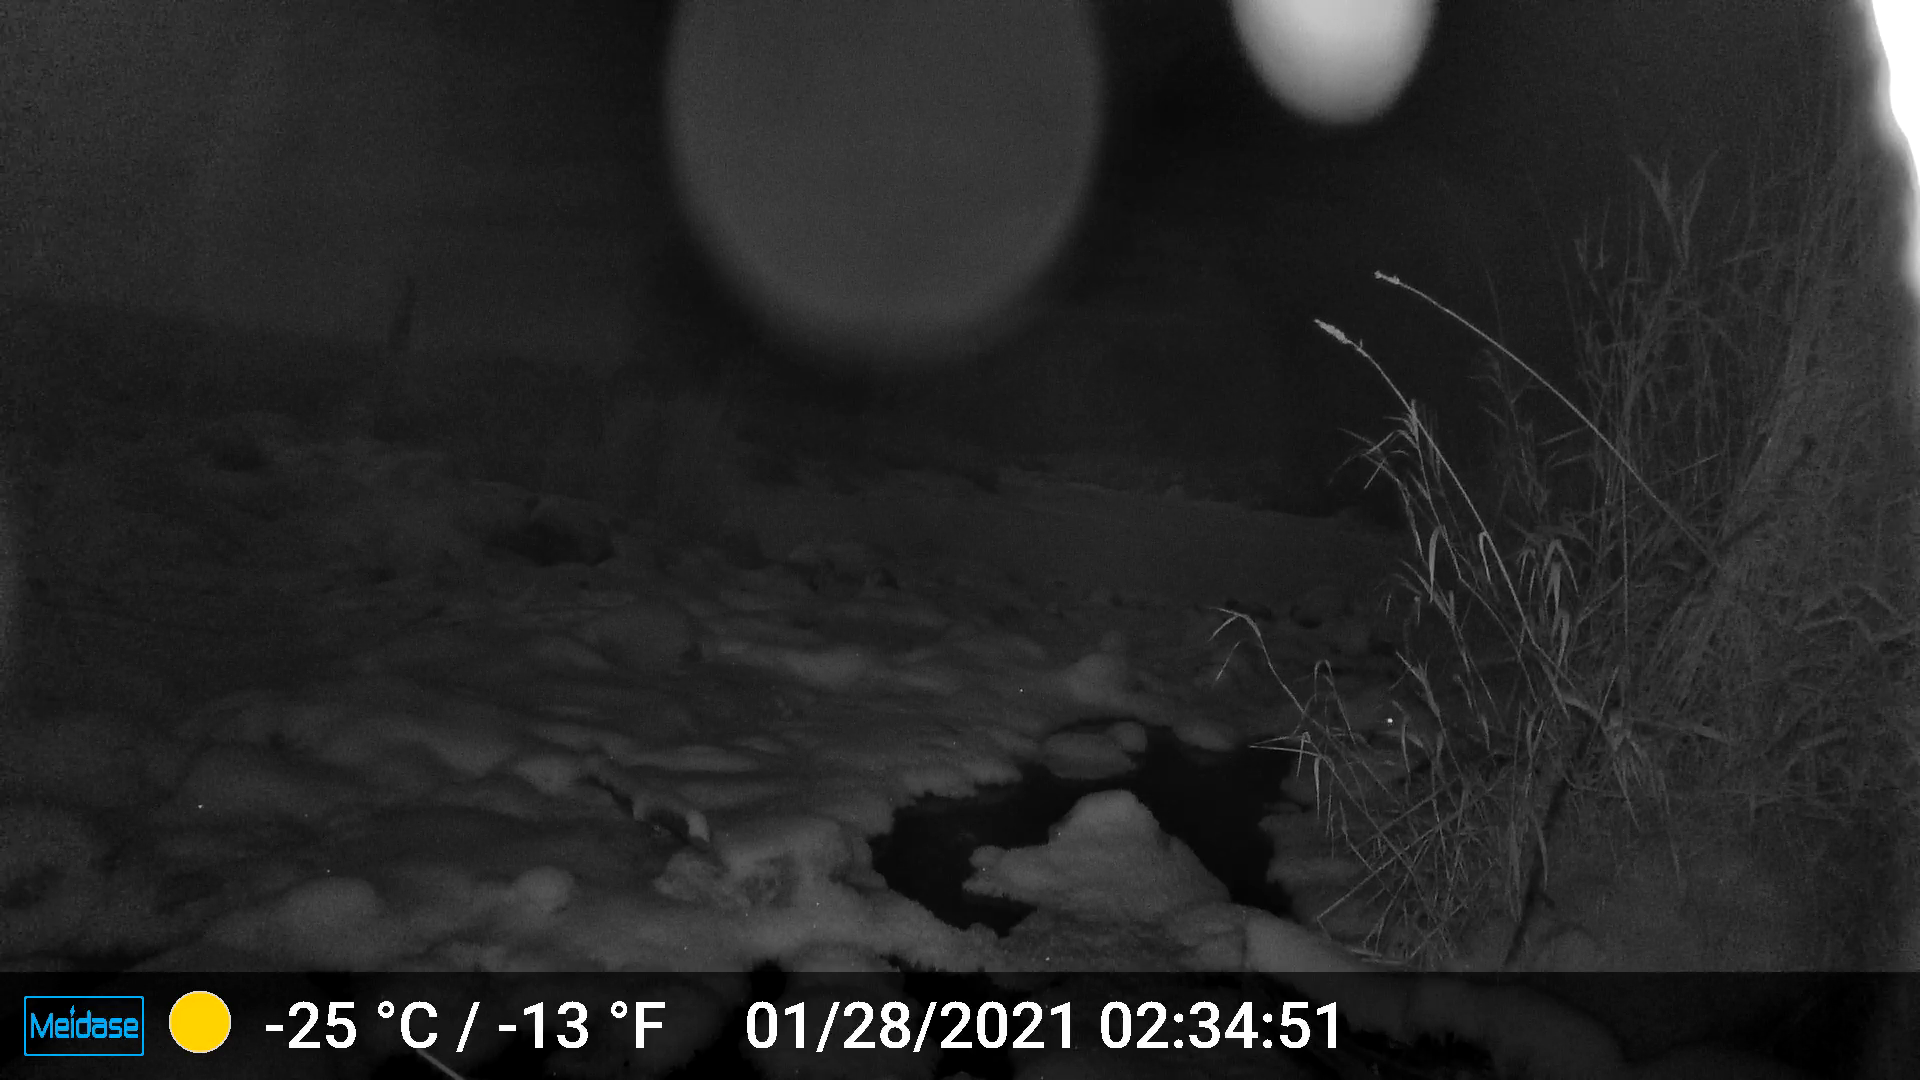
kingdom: Animalia
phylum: Chordata
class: Mammalia
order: Carnivora
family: Canidae
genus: Vulpes
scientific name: Vulpes vulpes
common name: Red fox
